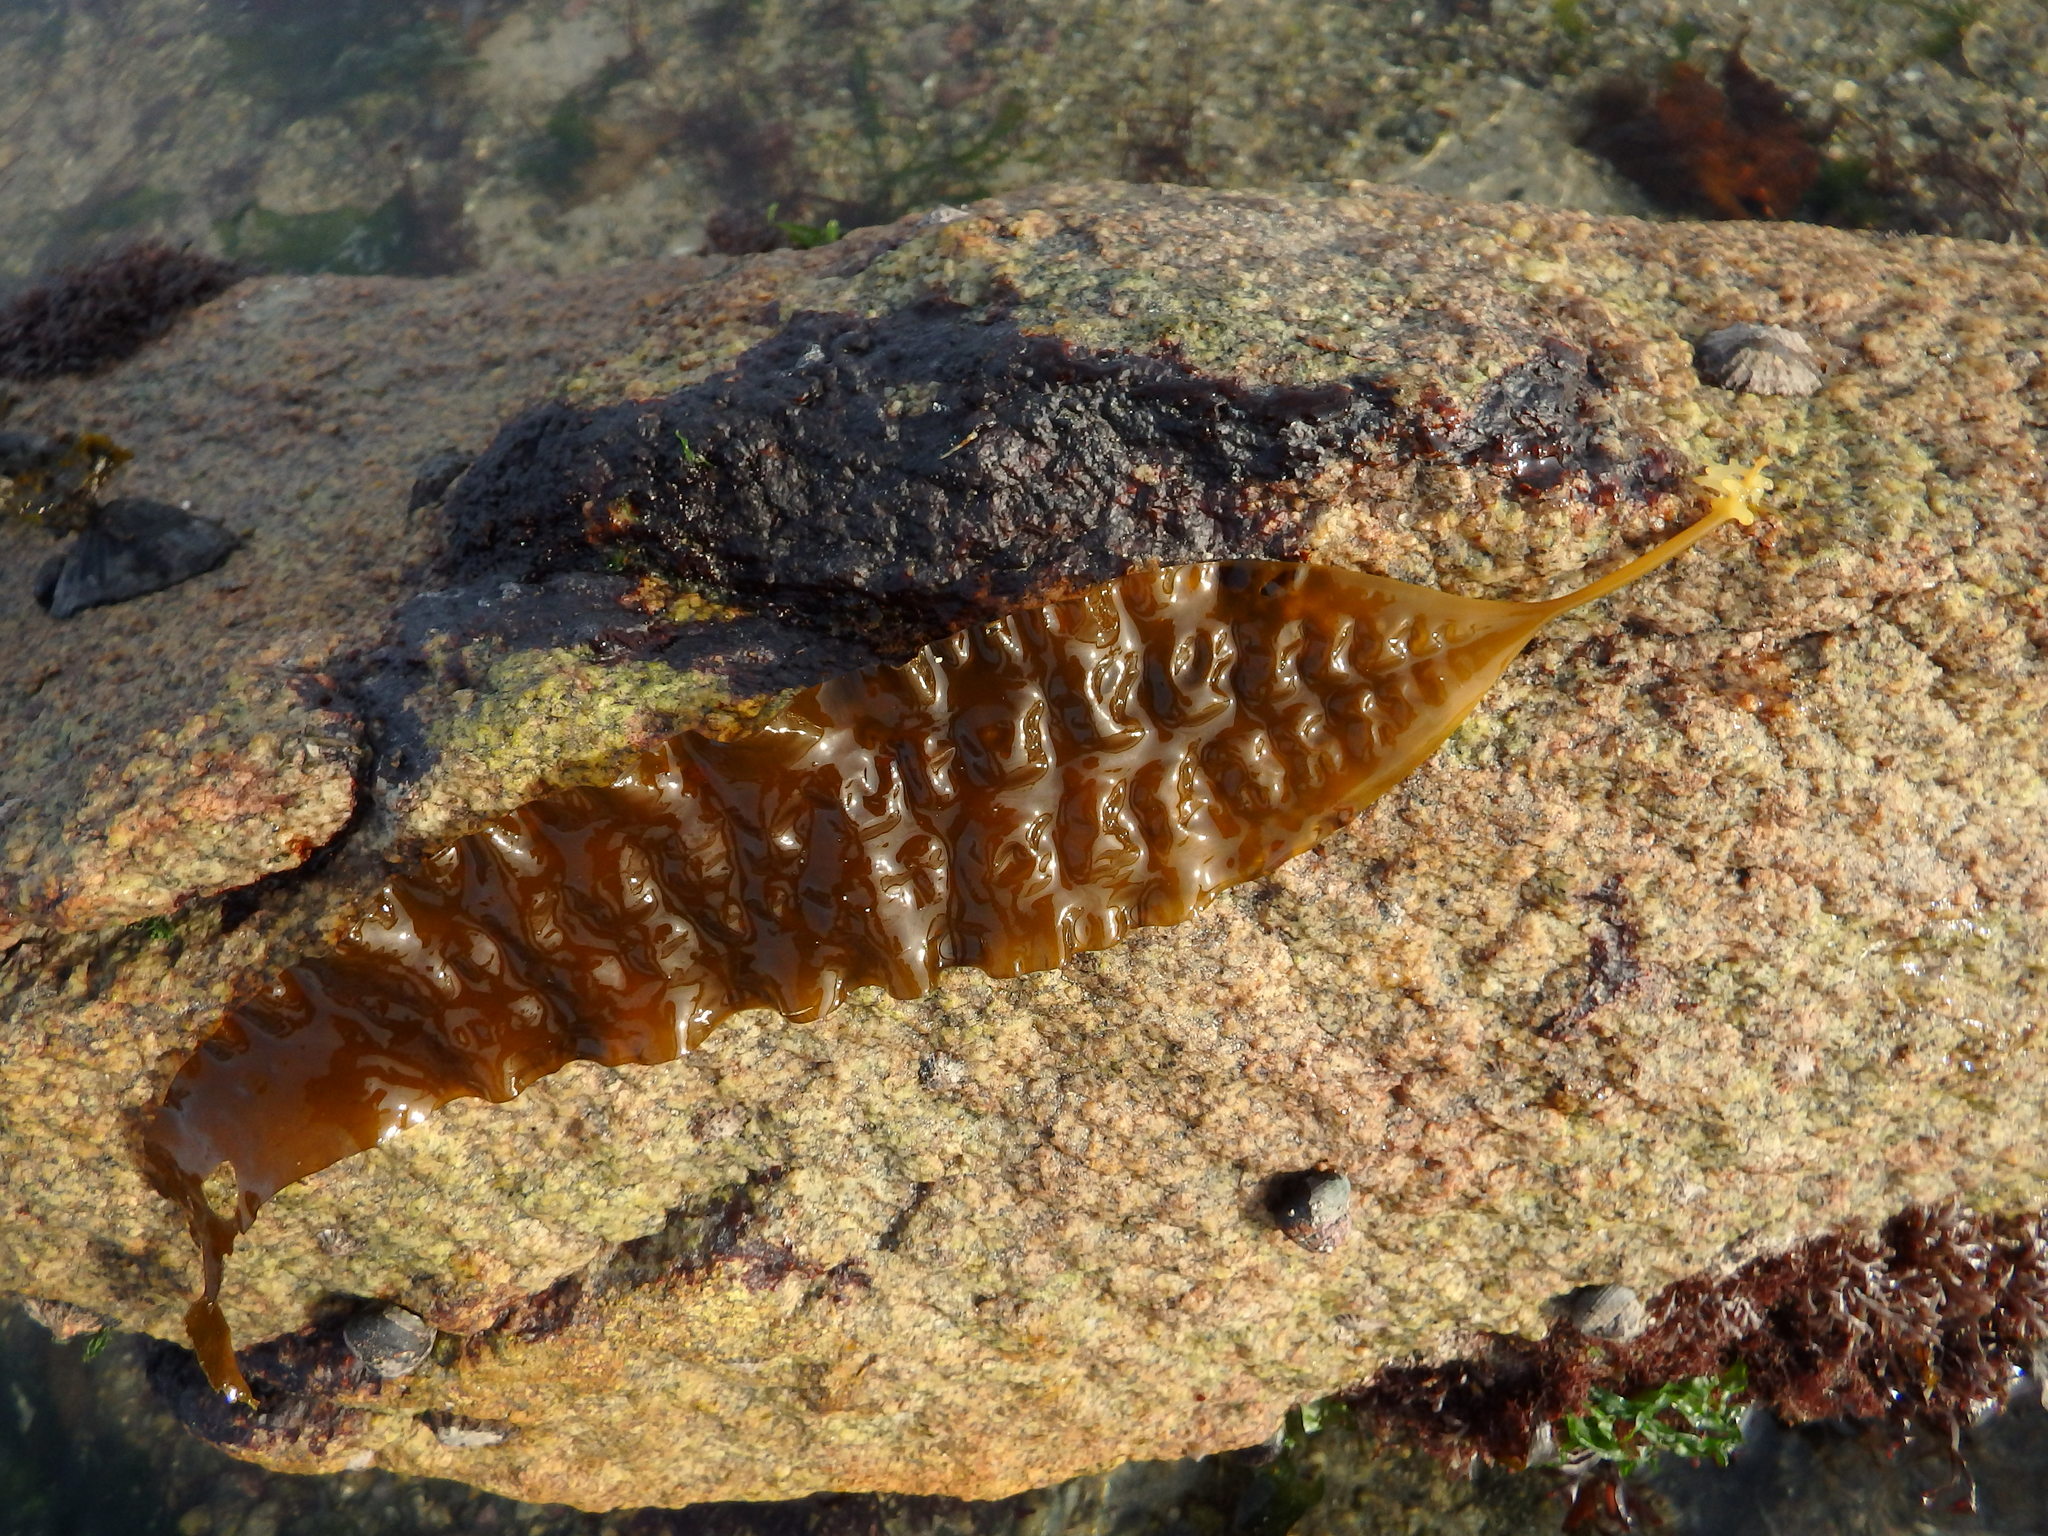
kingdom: Chromista
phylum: Ochrophyta
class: Phaeophyceae
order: Laminariales
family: Laminariaceae
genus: Saccharina
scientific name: Saccharina latissima
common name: Poor man's weather glass
